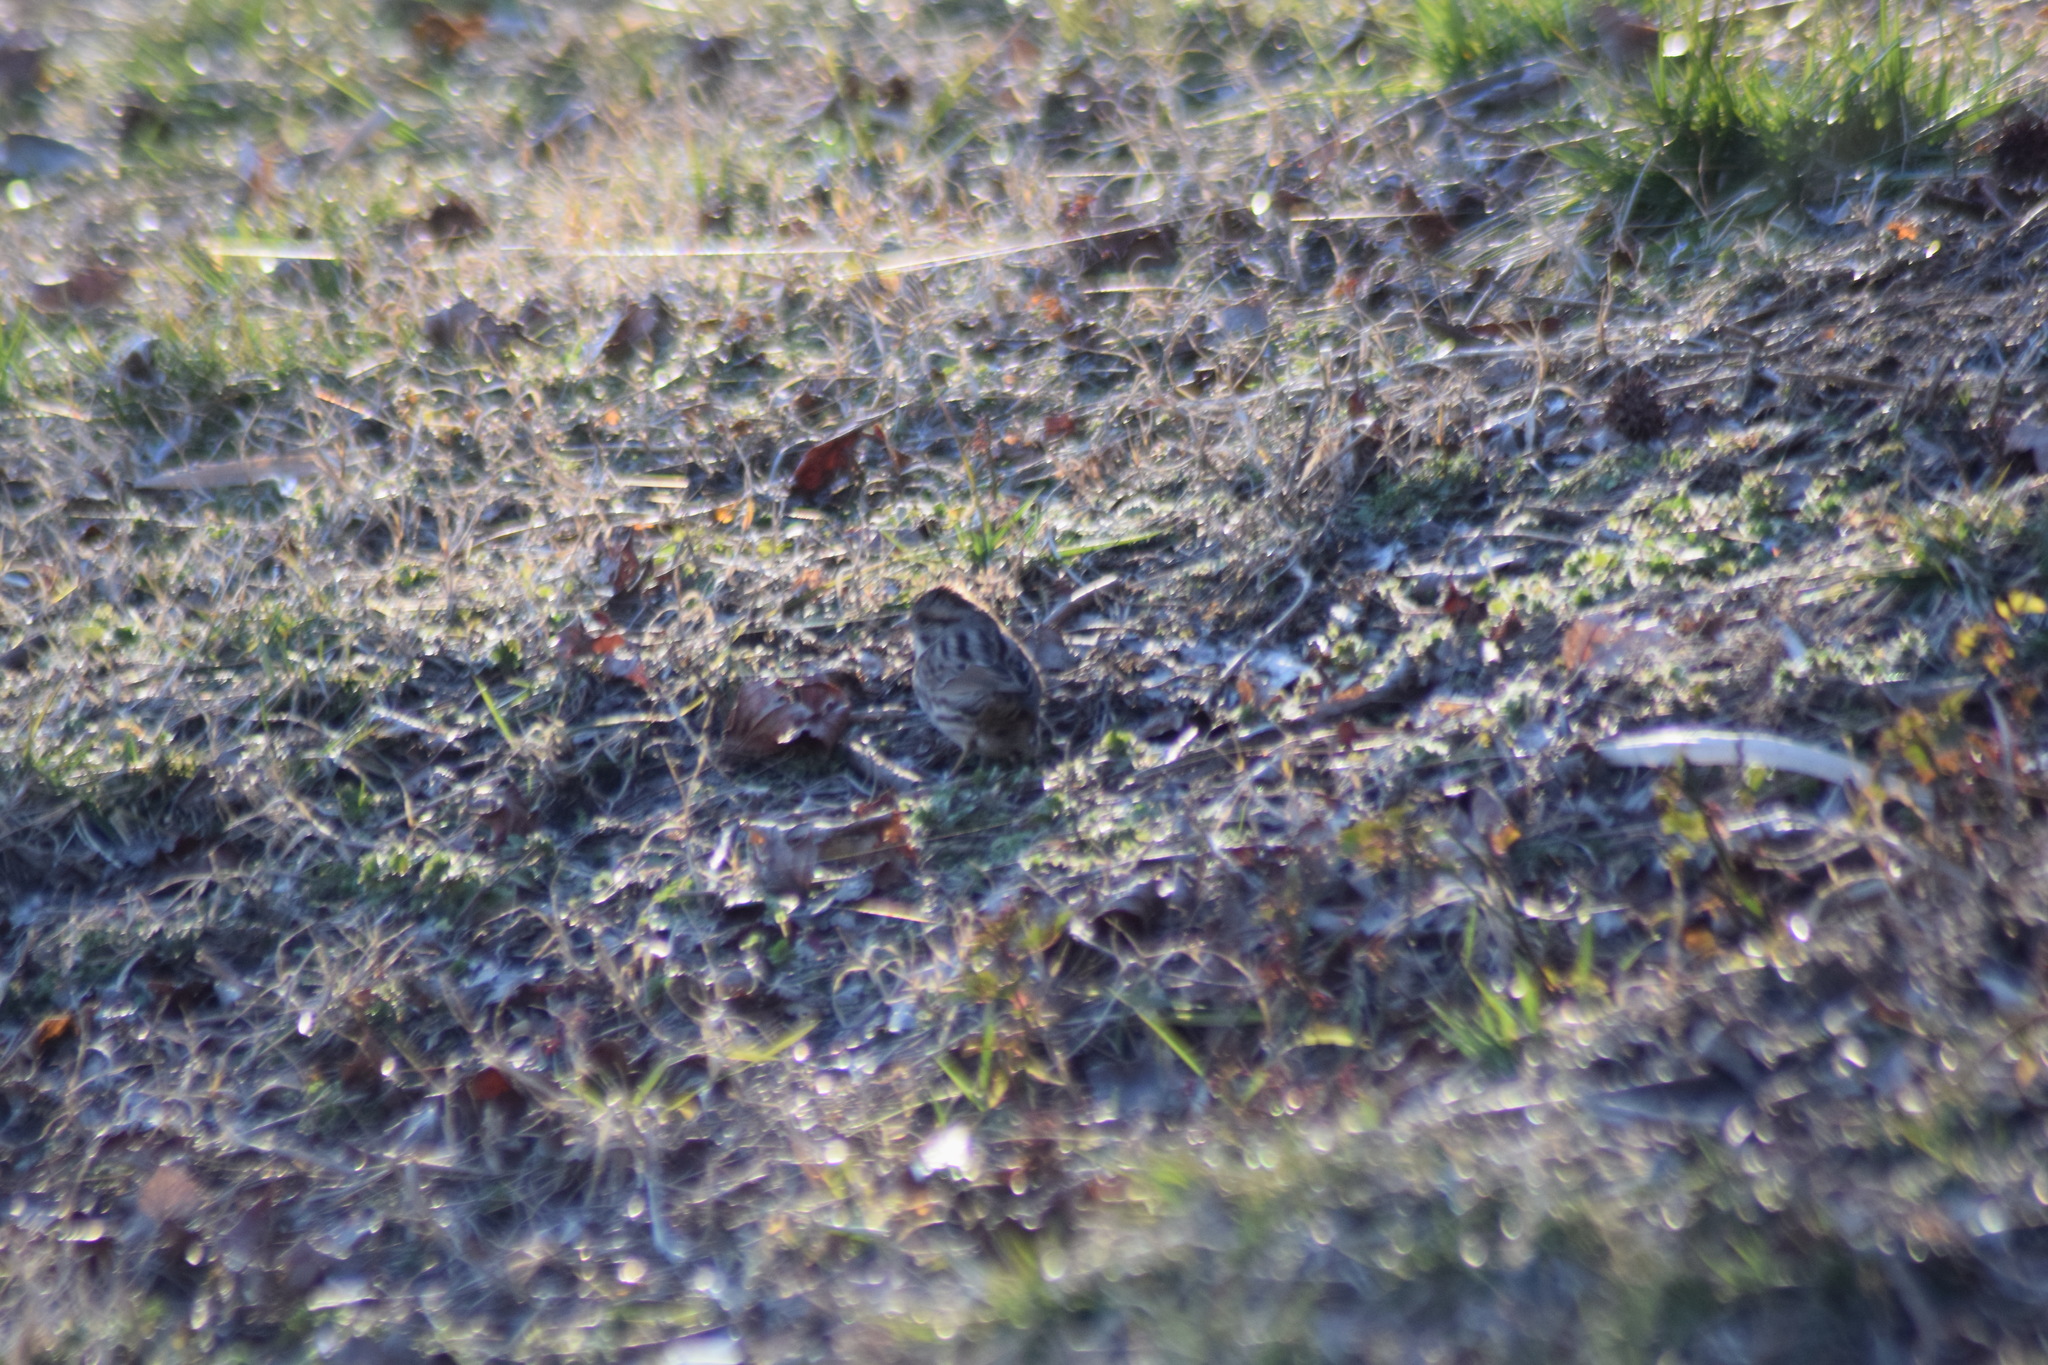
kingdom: Animalia
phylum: Chordata
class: Aves
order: Passeriformes
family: Passerellidae
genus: Melospiza
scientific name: Melospiza melodia
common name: Song sparrow
